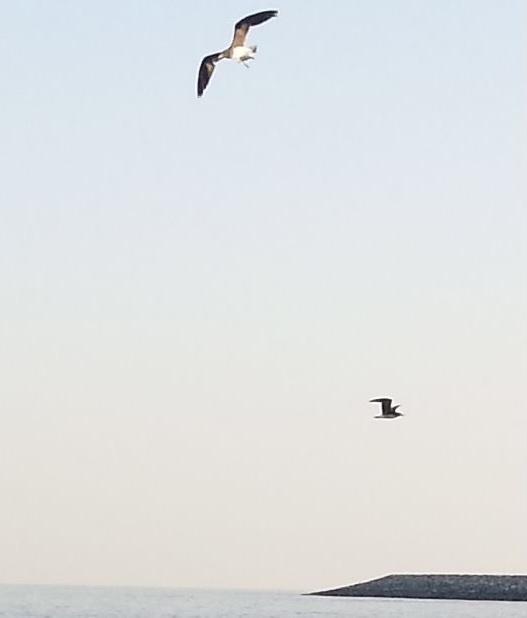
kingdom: Animalia
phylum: Chordata
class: Aves
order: Charadriiformes
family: Laridae
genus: Ichthyaetus
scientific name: Ichthyaetus hemprichii
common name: Sooty gull
